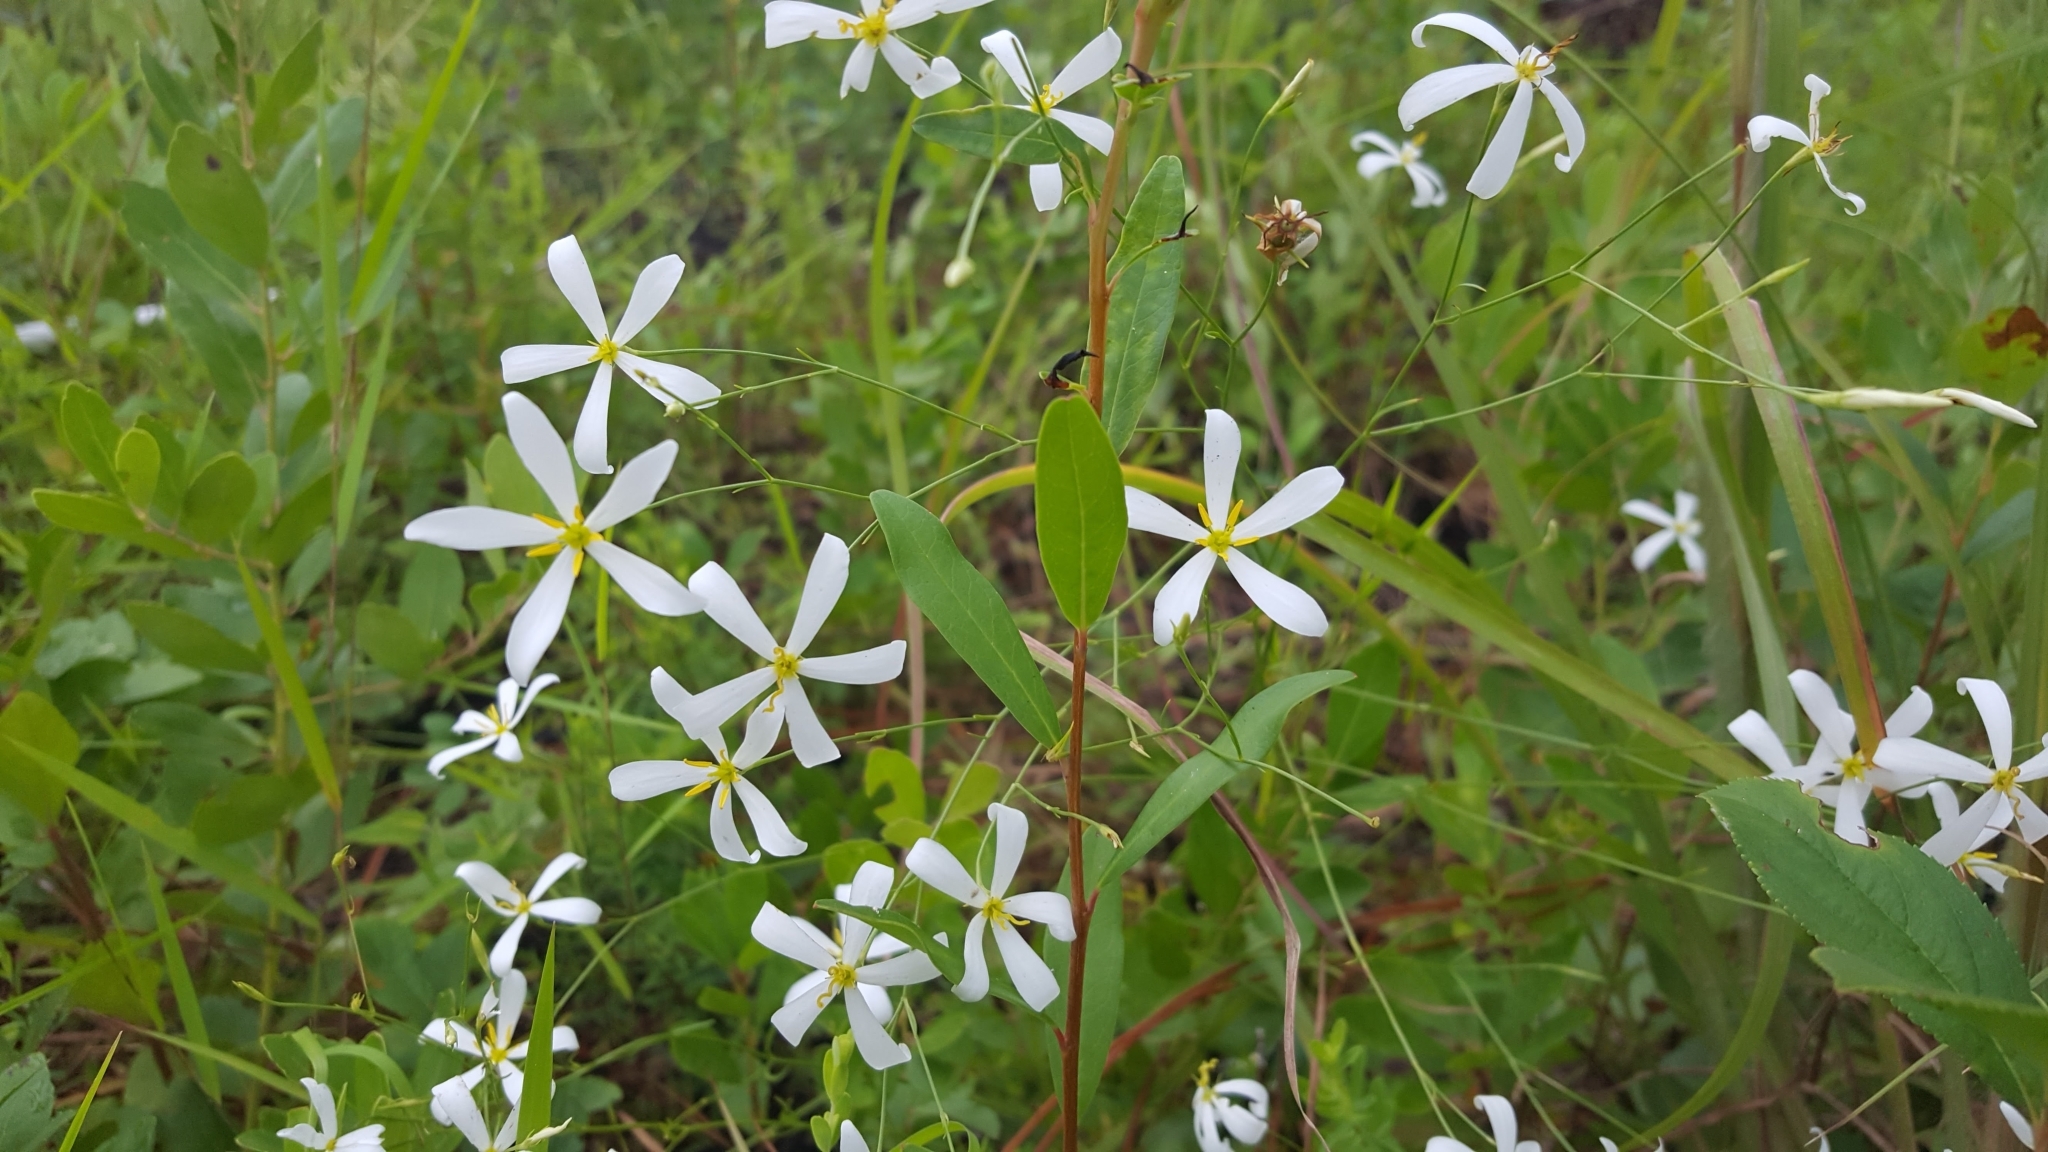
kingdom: Plantae
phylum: Tracheophyta
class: Magnoliopsida
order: Gentianales
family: Gentianaceae
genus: Sabatia
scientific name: Sabatia brevifolia
